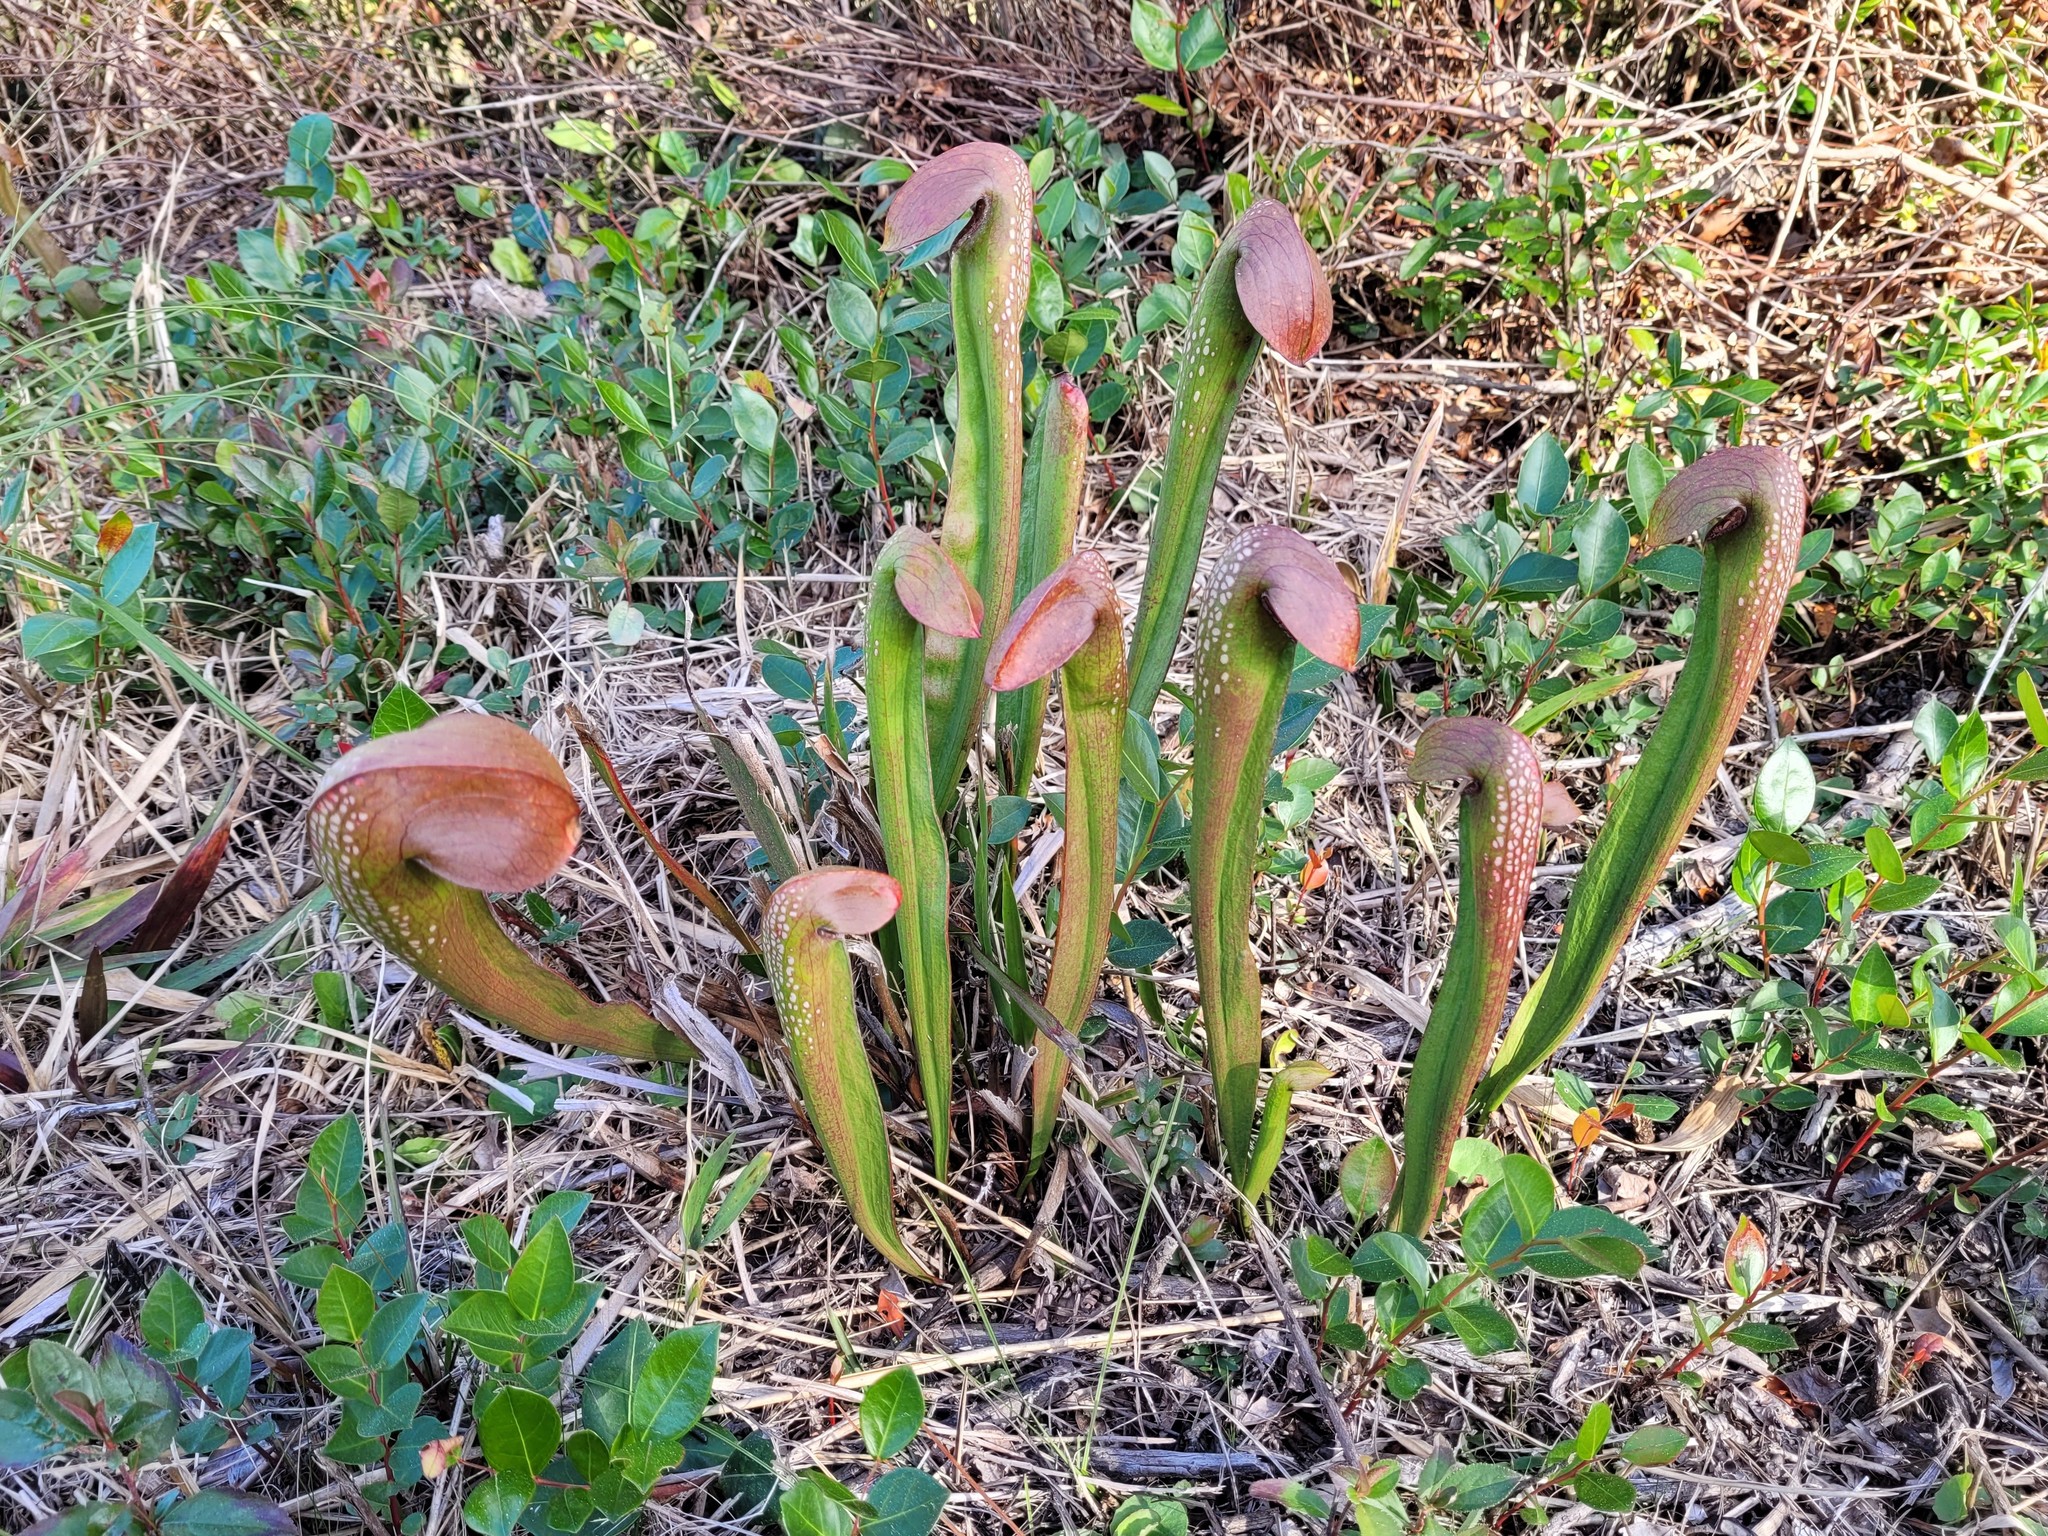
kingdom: Plantae
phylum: Tracheophyta
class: Magnoliopsida
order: Ericales
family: Sarraceniaceae
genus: Sarracenia
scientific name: Sarracenia minor
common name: Rainhat-trumpet
